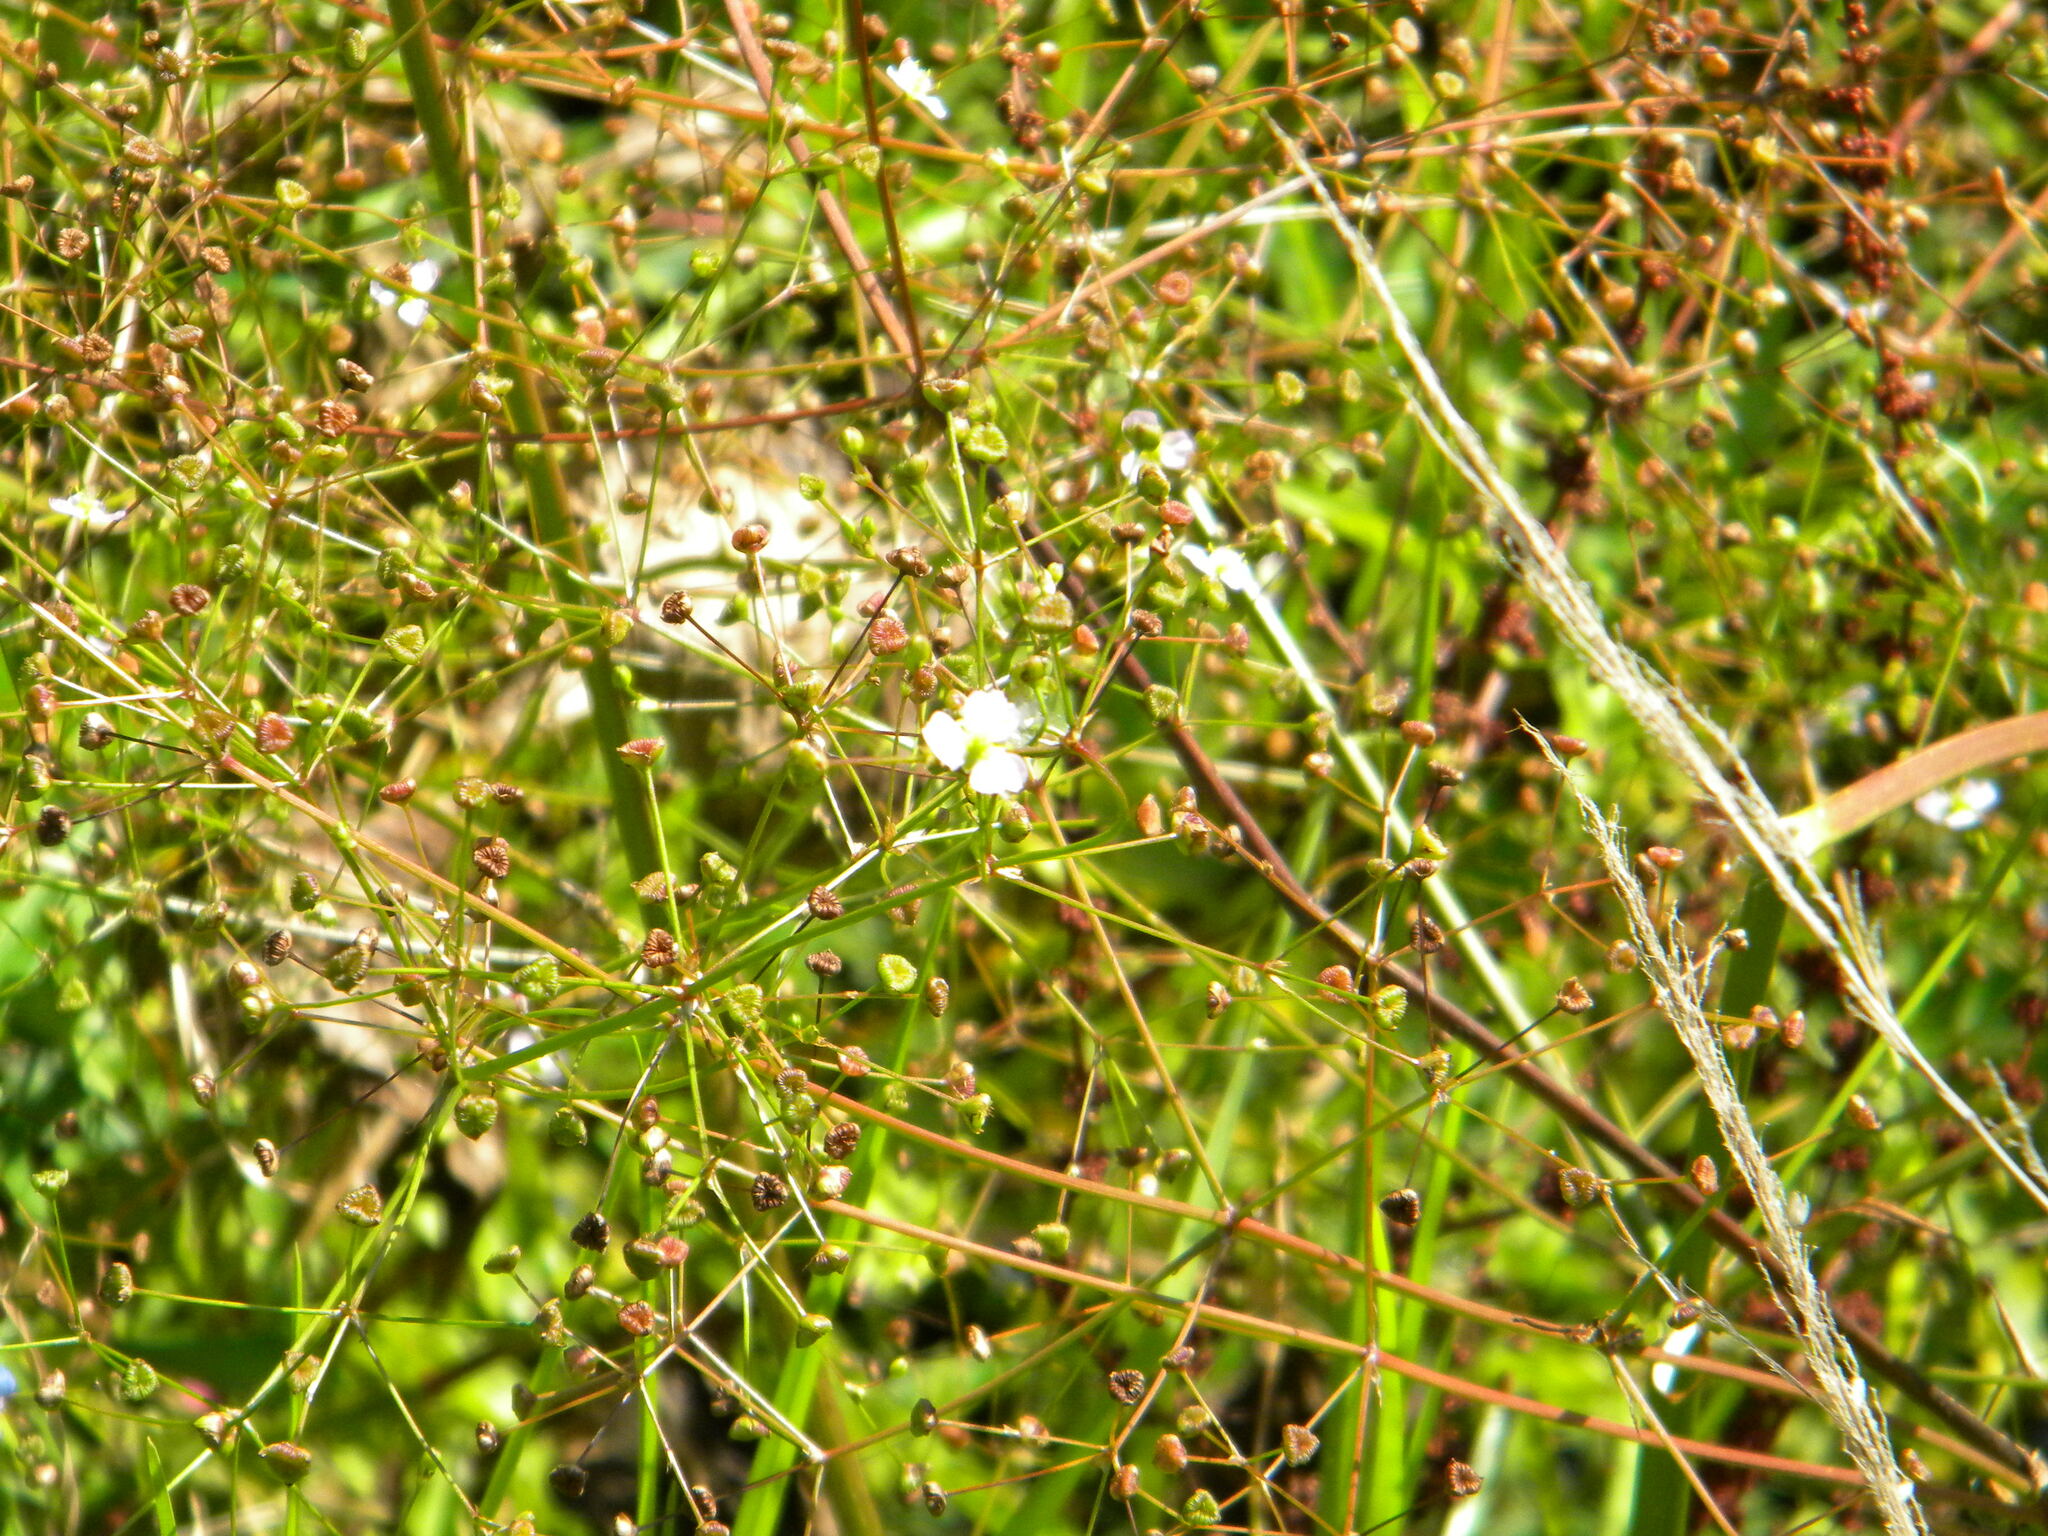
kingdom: Plantae
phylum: Tracheophyta
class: Liliopsida
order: Alismatales
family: Alismataceae
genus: Alisma
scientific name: Alisma plantago-aquatica
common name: Water-plantain
